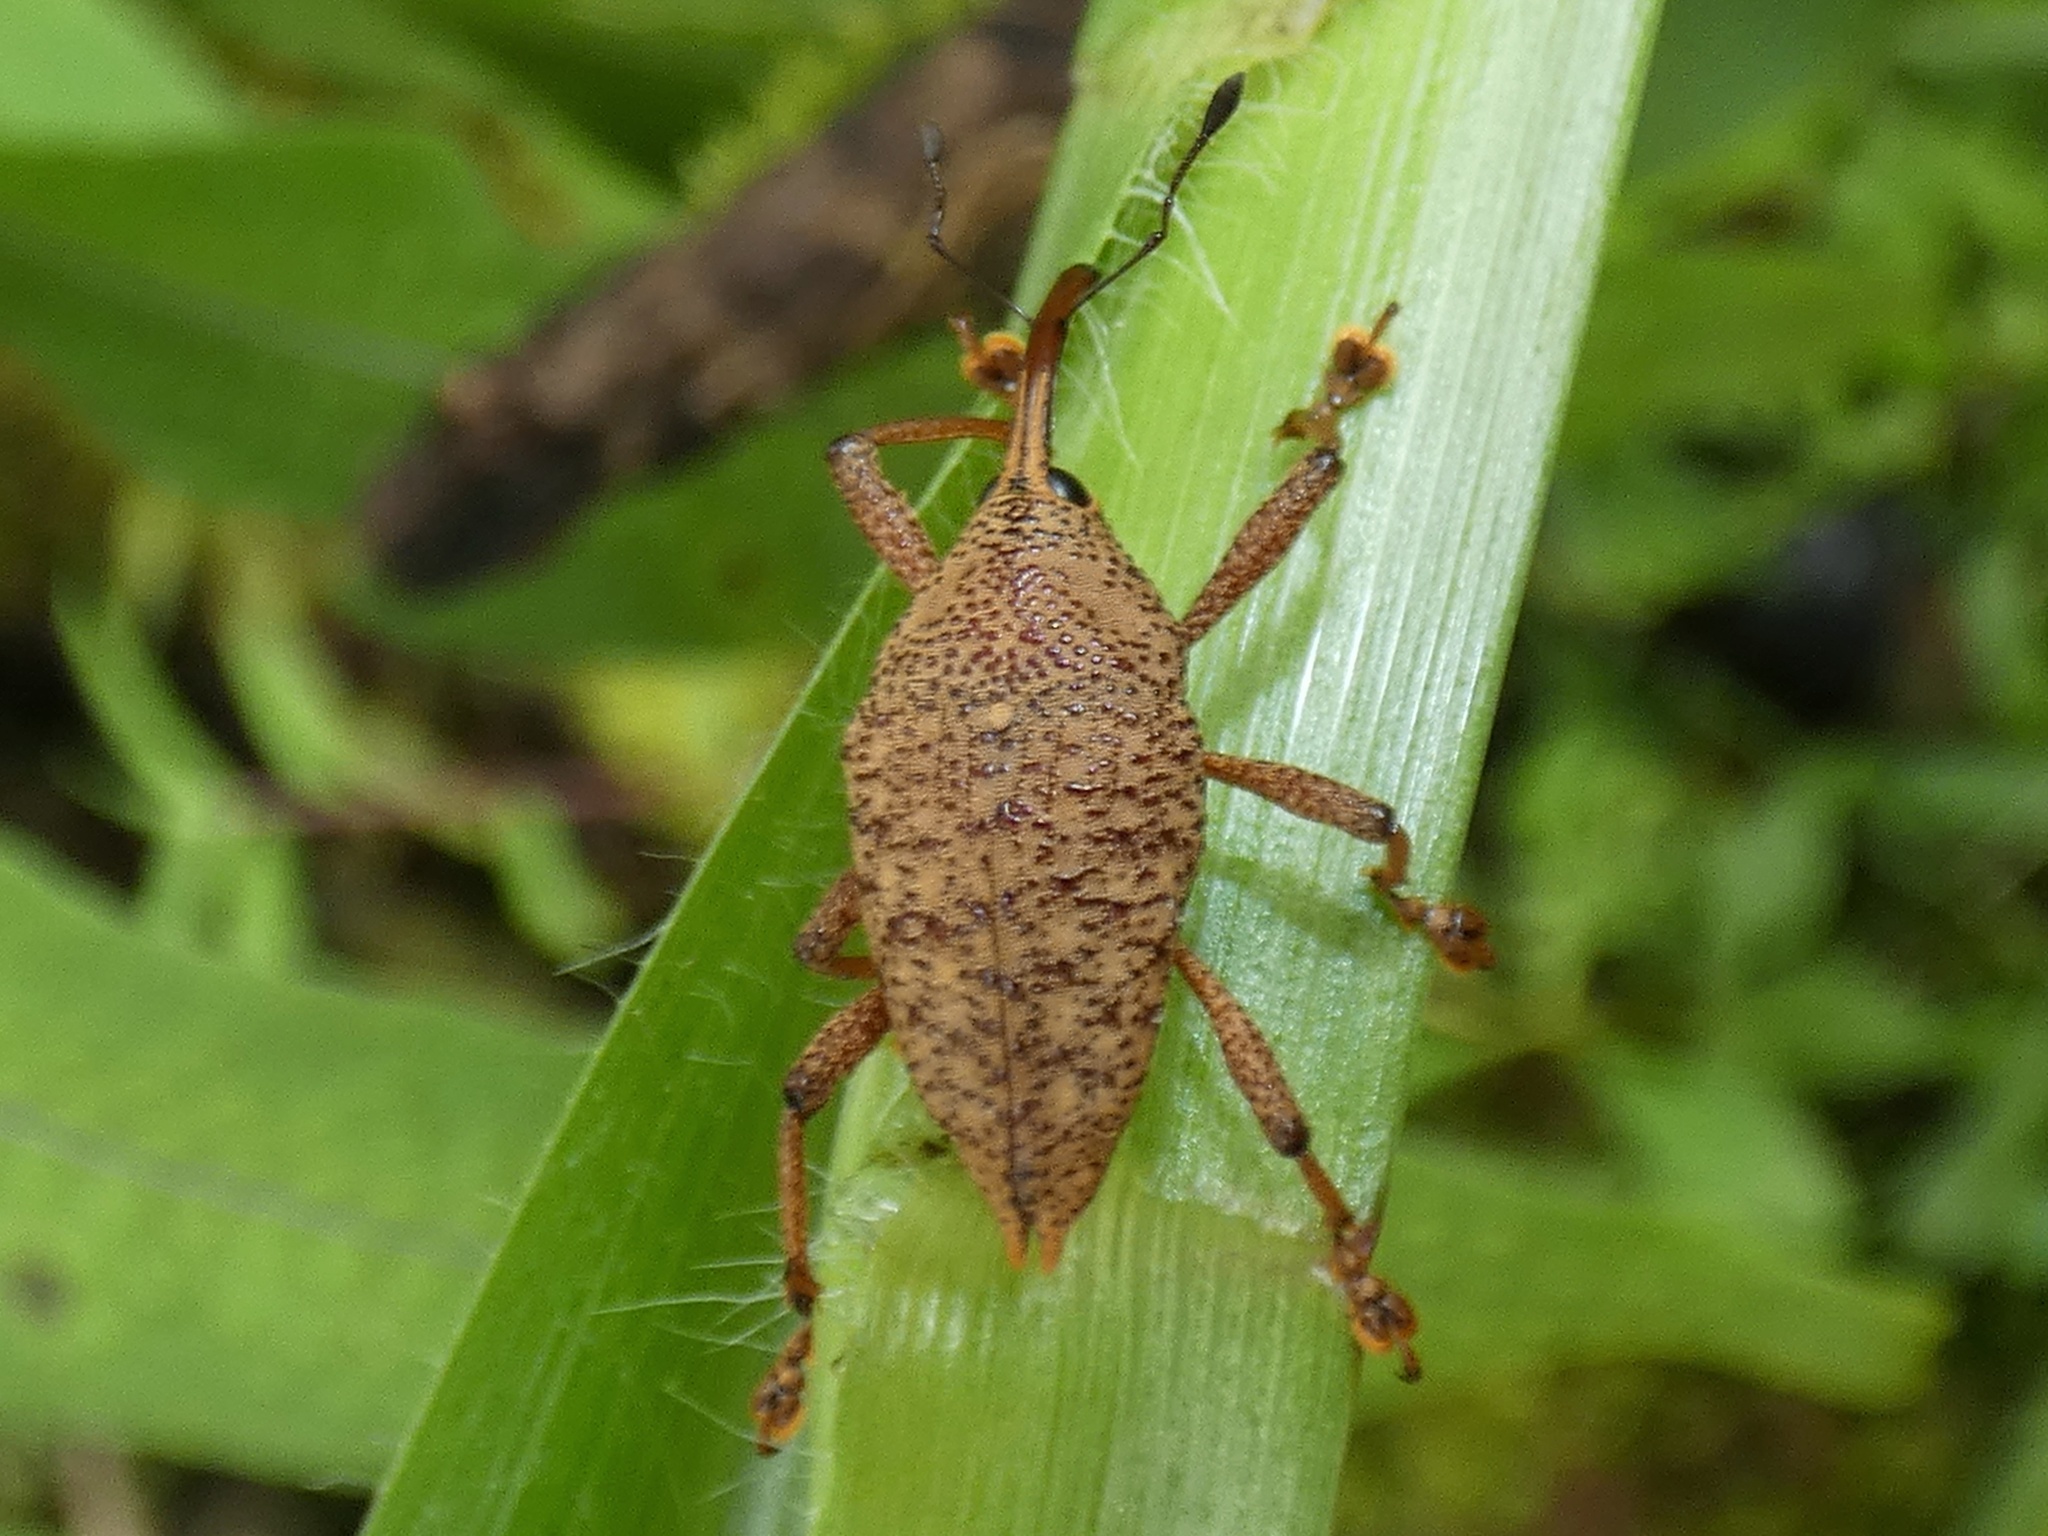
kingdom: Animalia
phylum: Arthropoda
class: Insecta
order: Coleoptera
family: Curculionidae
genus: Cholus
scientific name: Cholus subcaudatus
